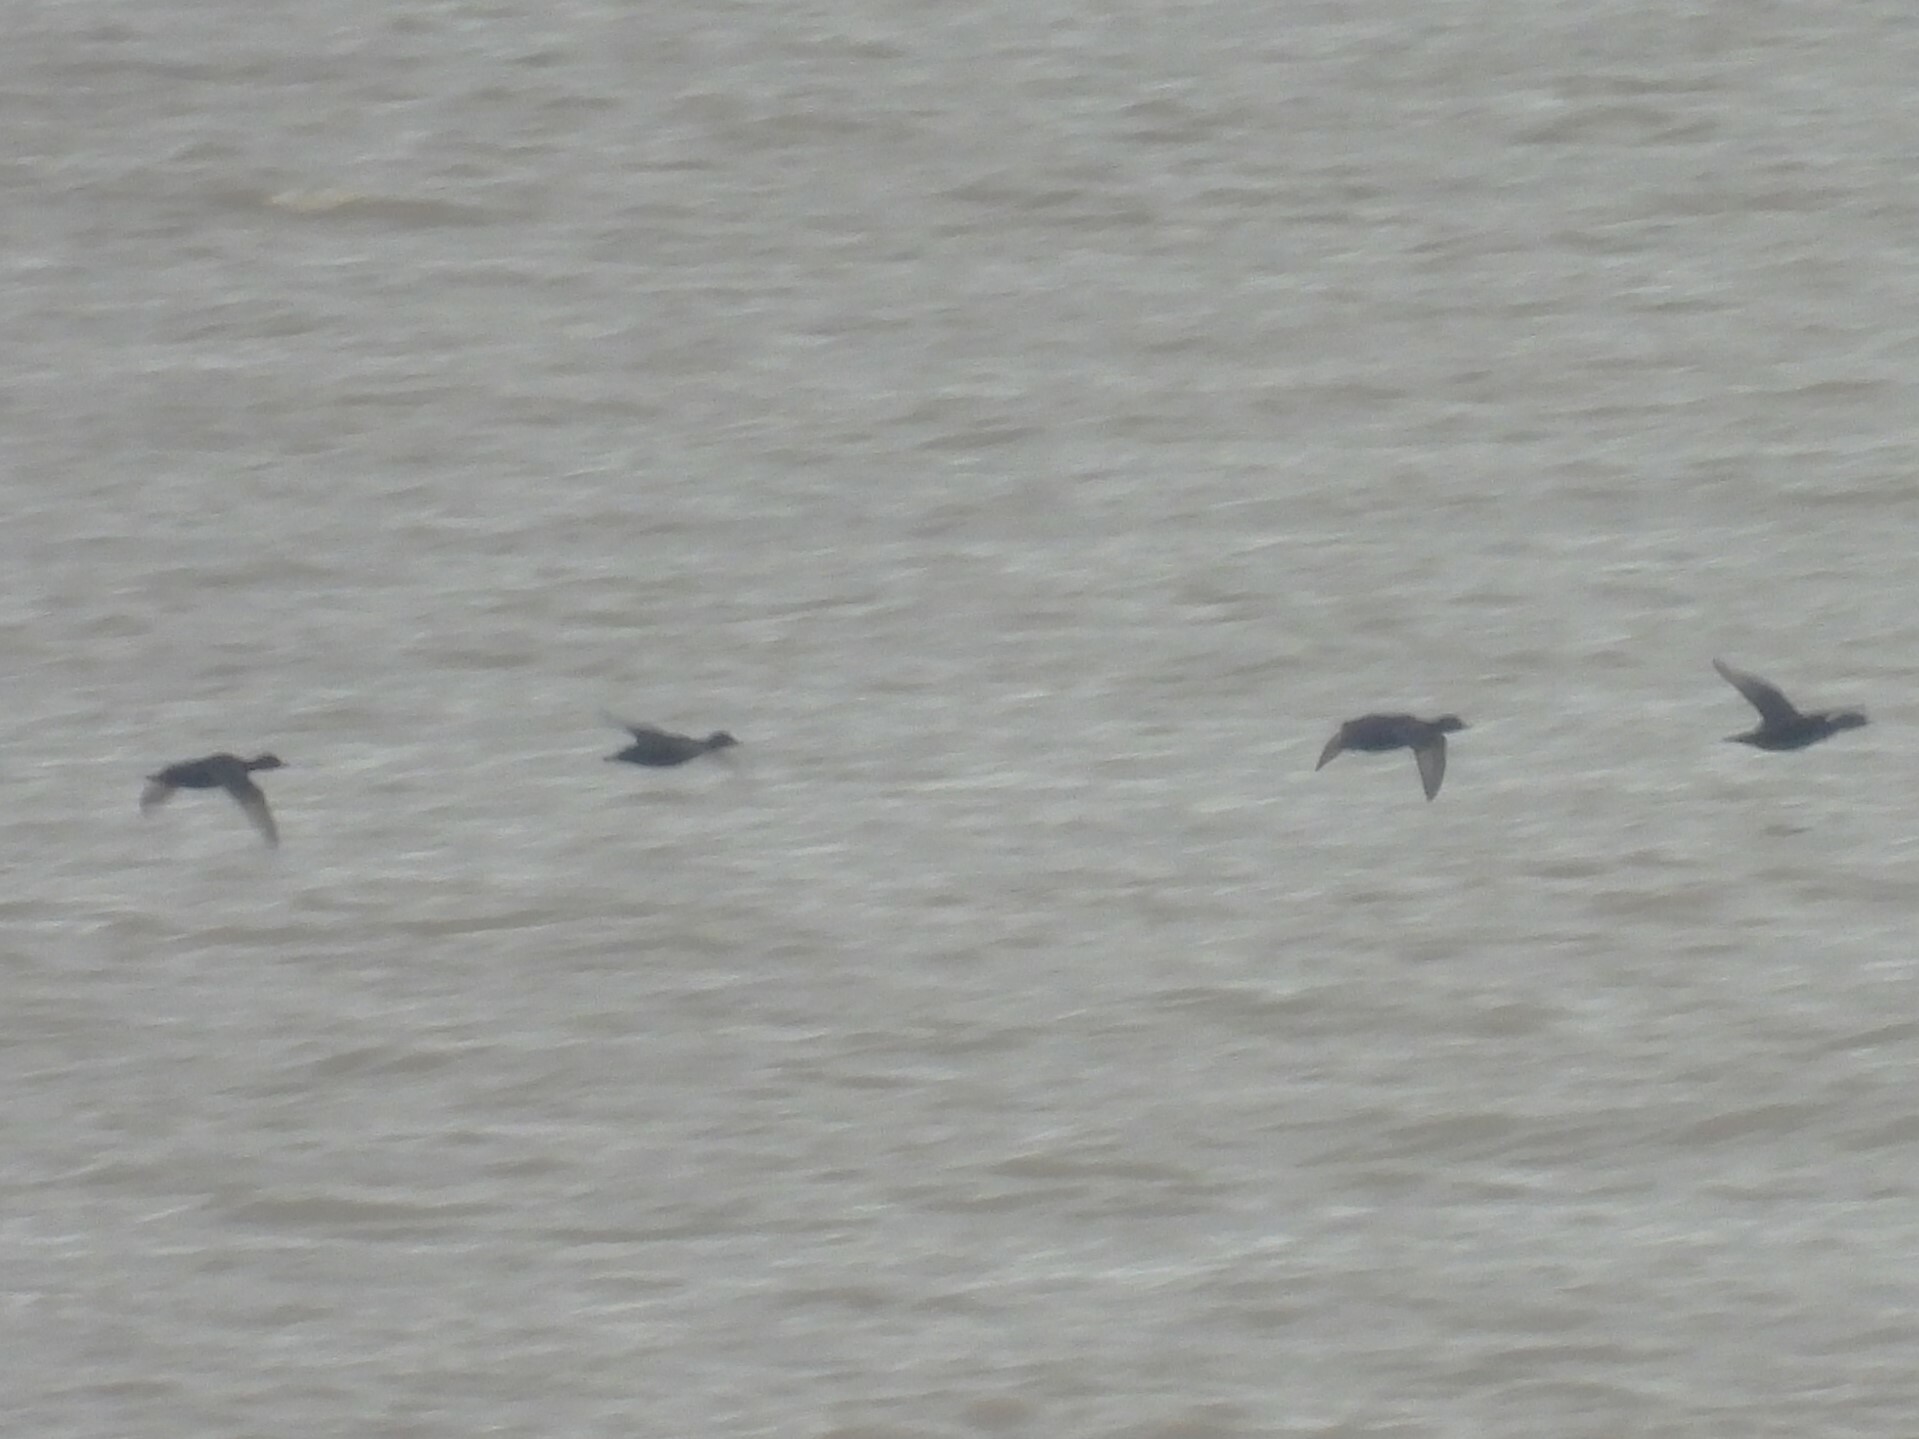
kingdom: Animalia
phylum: Chordata
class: Aves
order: Anseriformes
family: Anatidae
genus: Melanitta
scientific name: Melanitta nigra
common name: Common scoter
